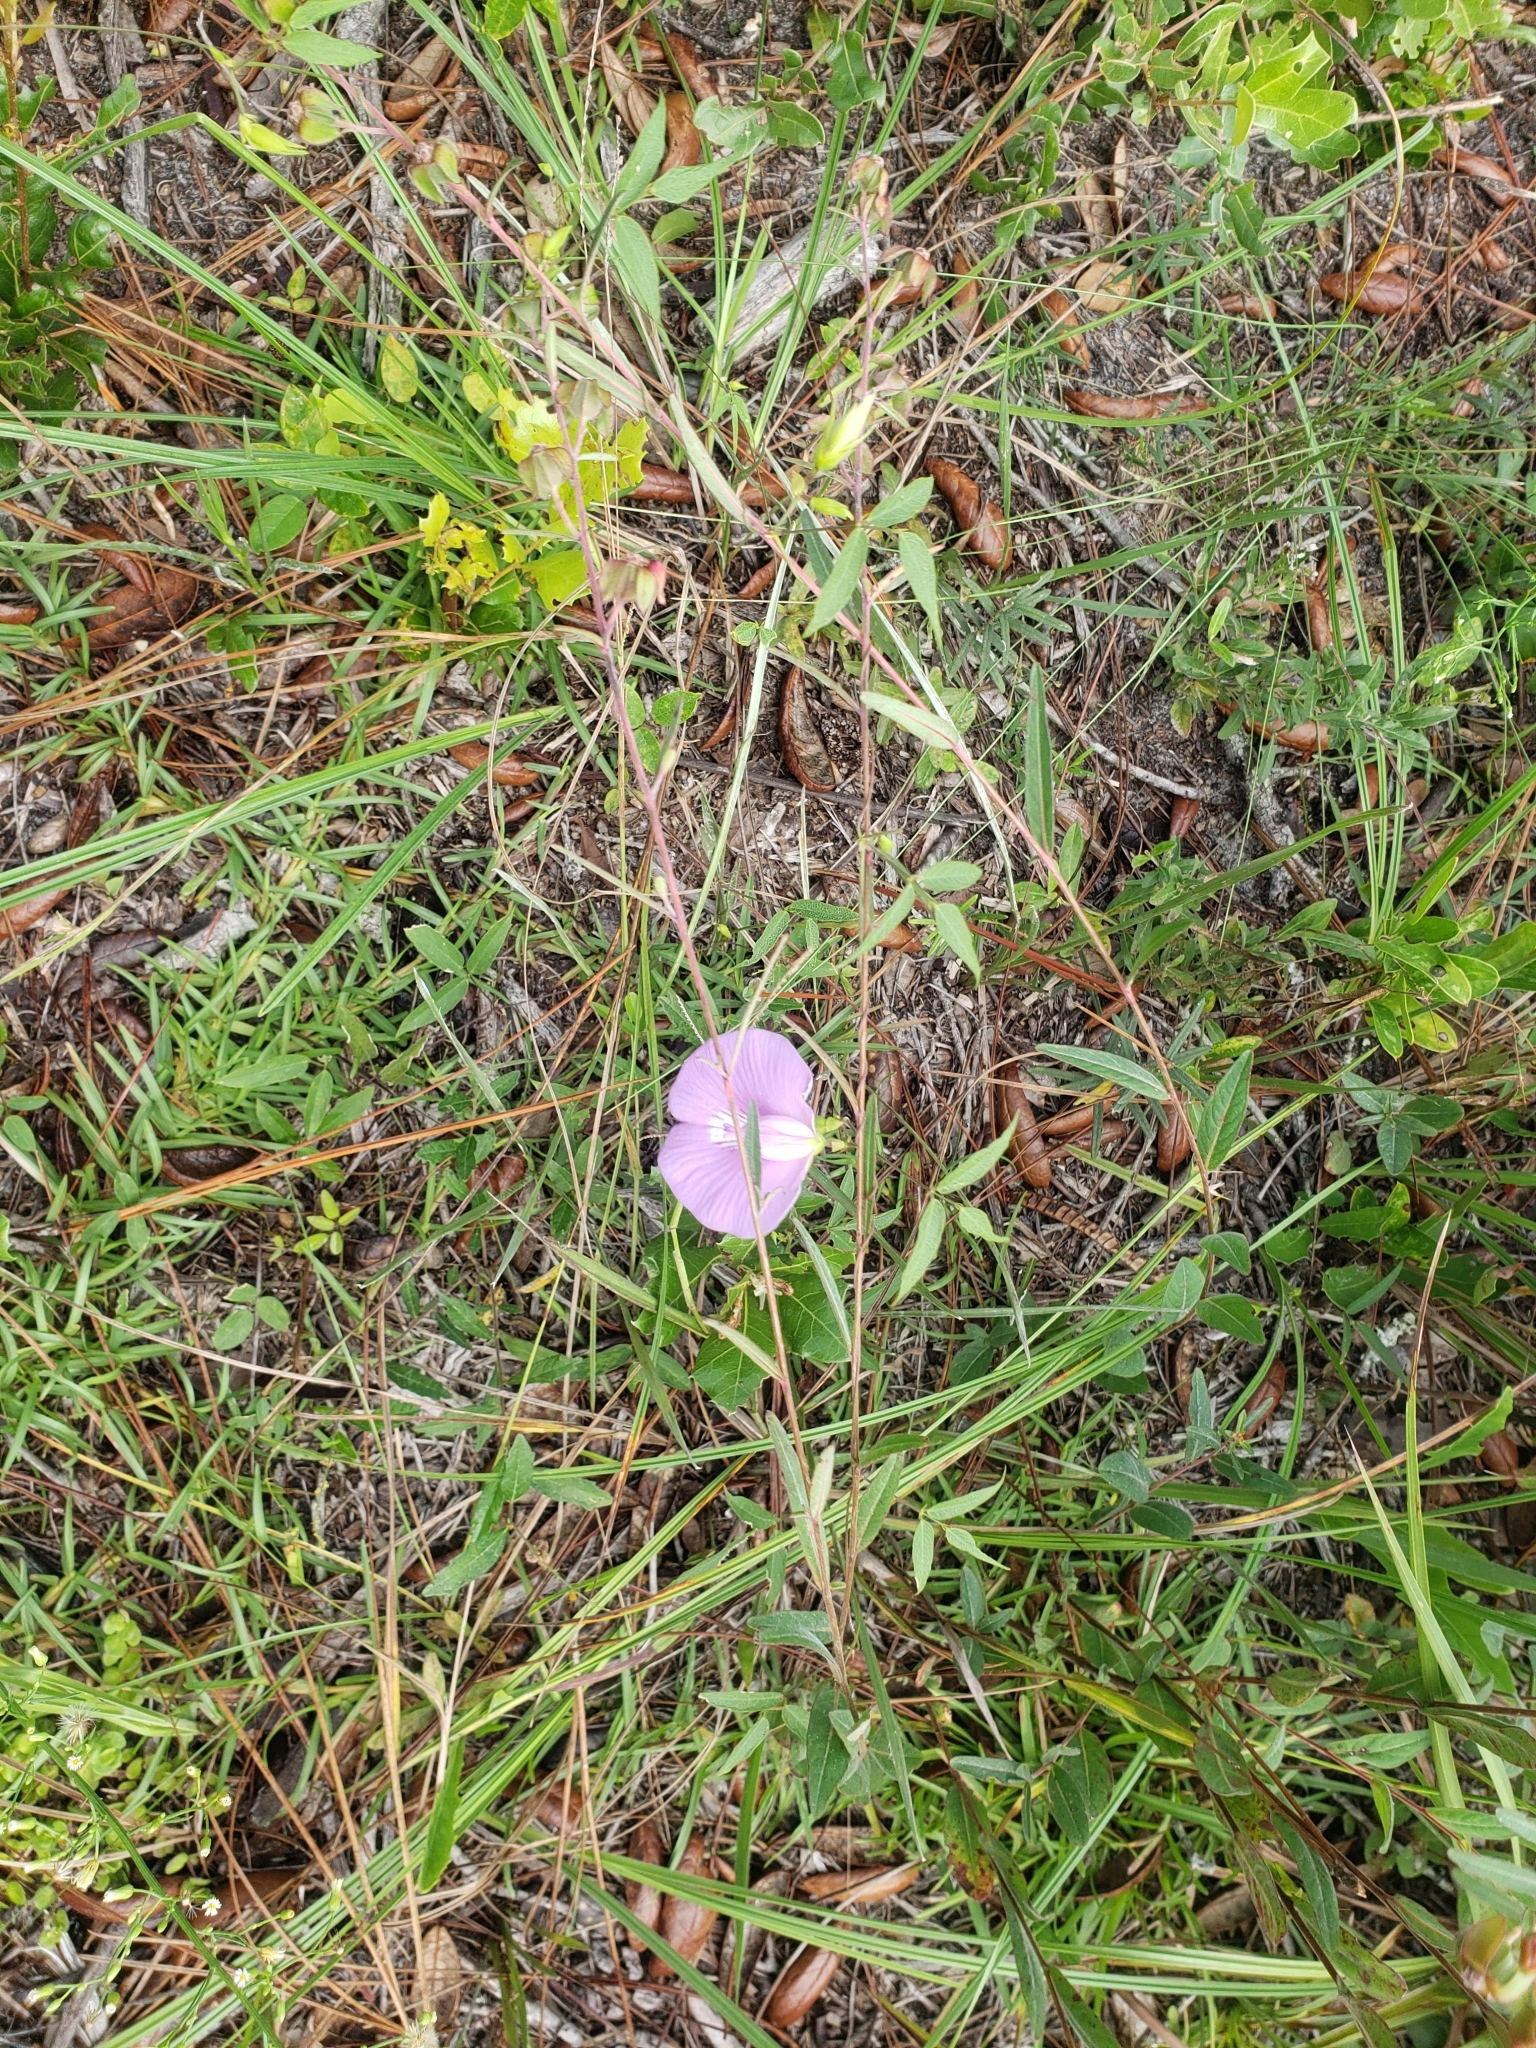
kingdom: Plantae
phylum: Tracheophyta
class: Magnoliopsida
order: Fabales
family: Fabaceae
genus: Centrosema
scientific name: Centrosema virginianum
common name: Butterfly-pea
